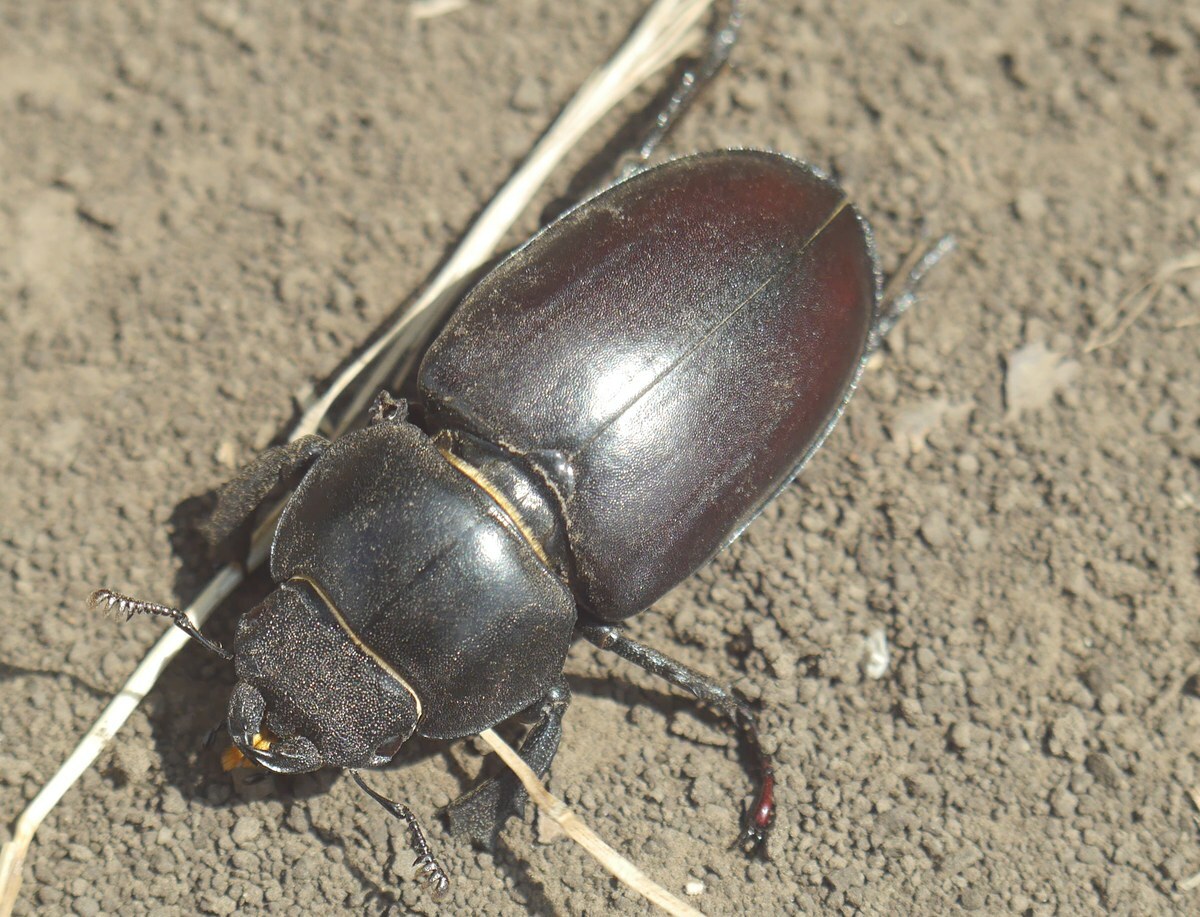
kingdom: Animalia
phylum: Arthropoda
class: Insecta
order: Coleoptera
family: Lucanidae
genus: Lucanus
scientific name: Lucanus cervus
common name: Stag beetle
